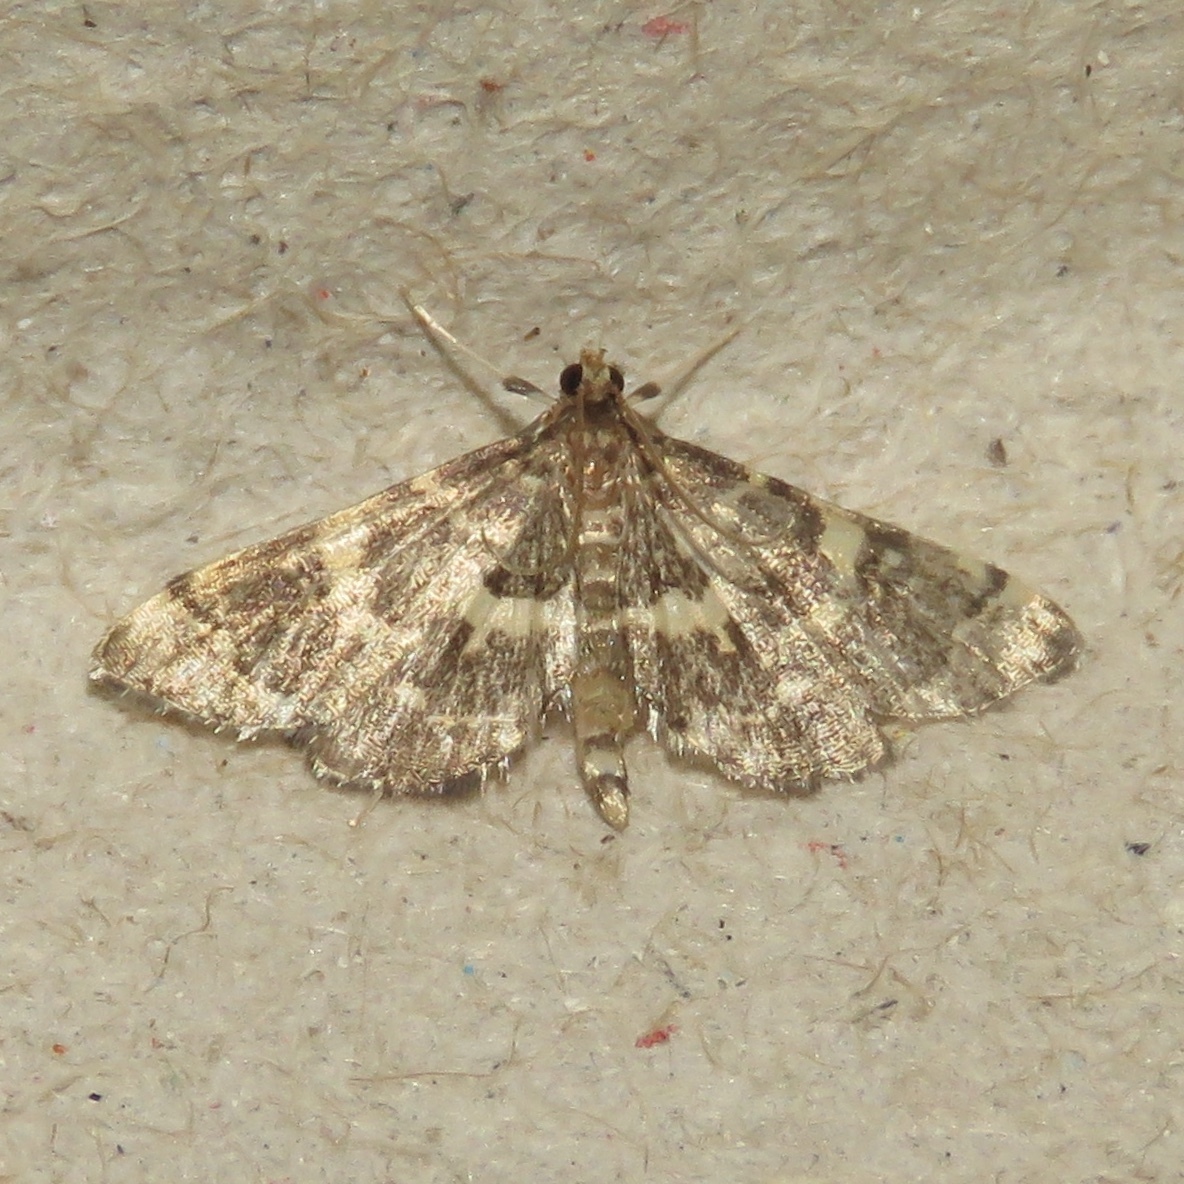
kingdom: Animalia
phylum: Arthropoda
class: Insecta
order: Lepidoptera
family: Crambidae
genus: Anageshna
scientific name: Anageshna primordialis
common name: Yellow-spotted webworm moth
